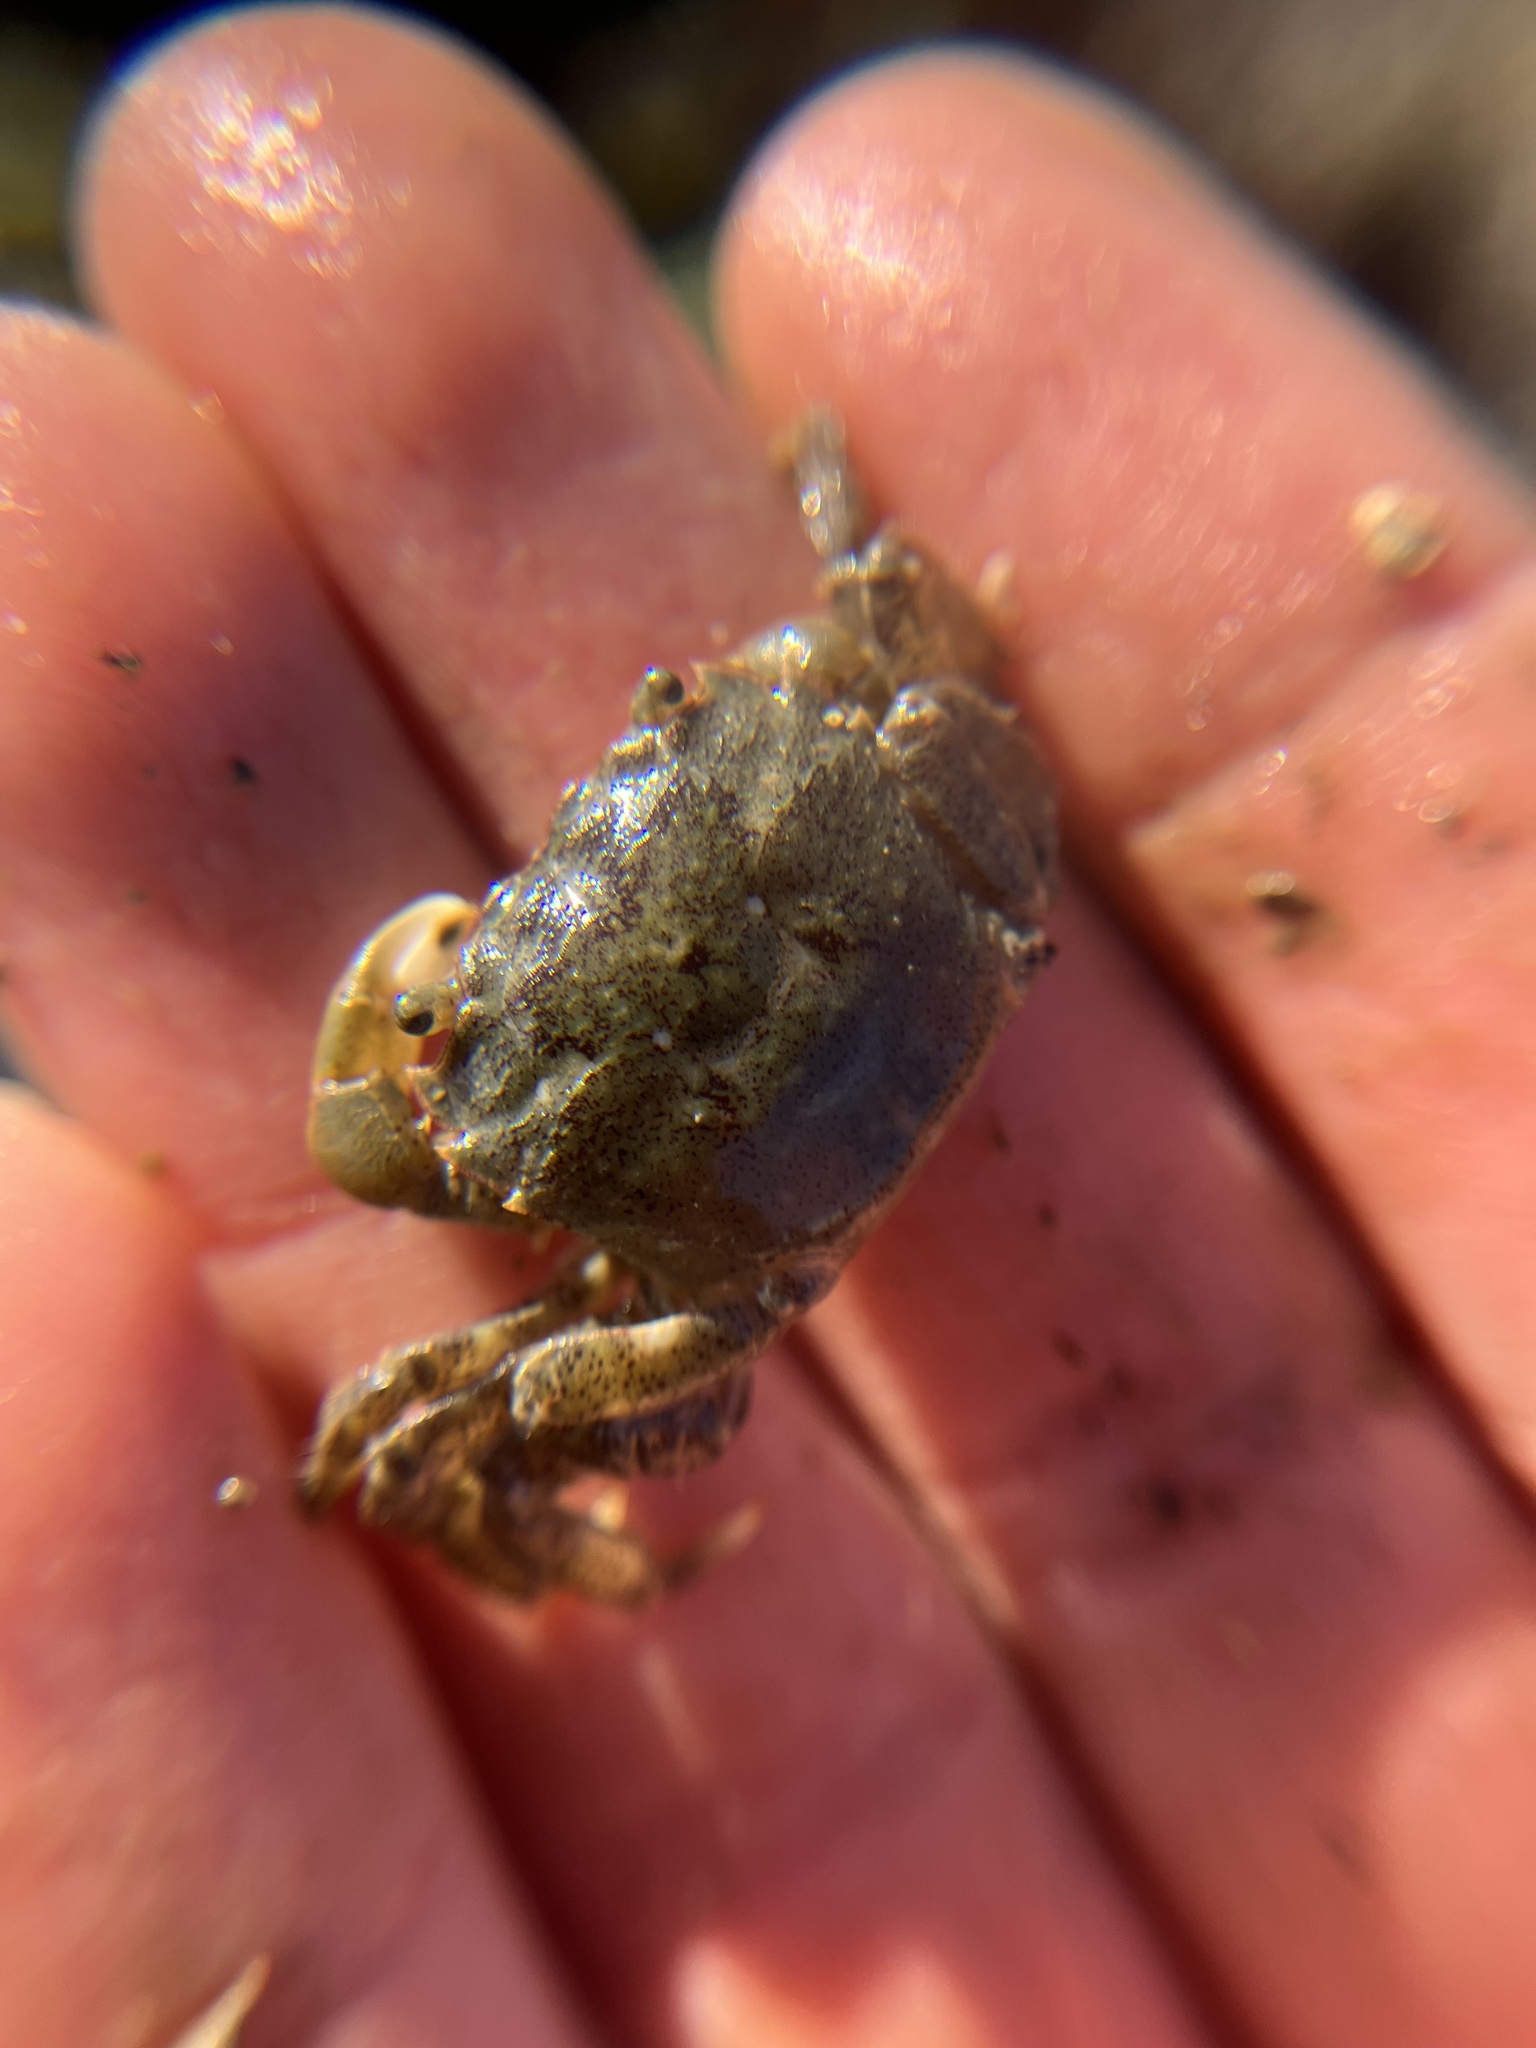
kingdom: Animalia
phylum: Arthropoda
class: Malacostraca
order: Decapoda
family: Varunidae
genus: Hemigrapsus
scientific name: Hemigrapsus oregonensis
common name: Yellow shore crab
